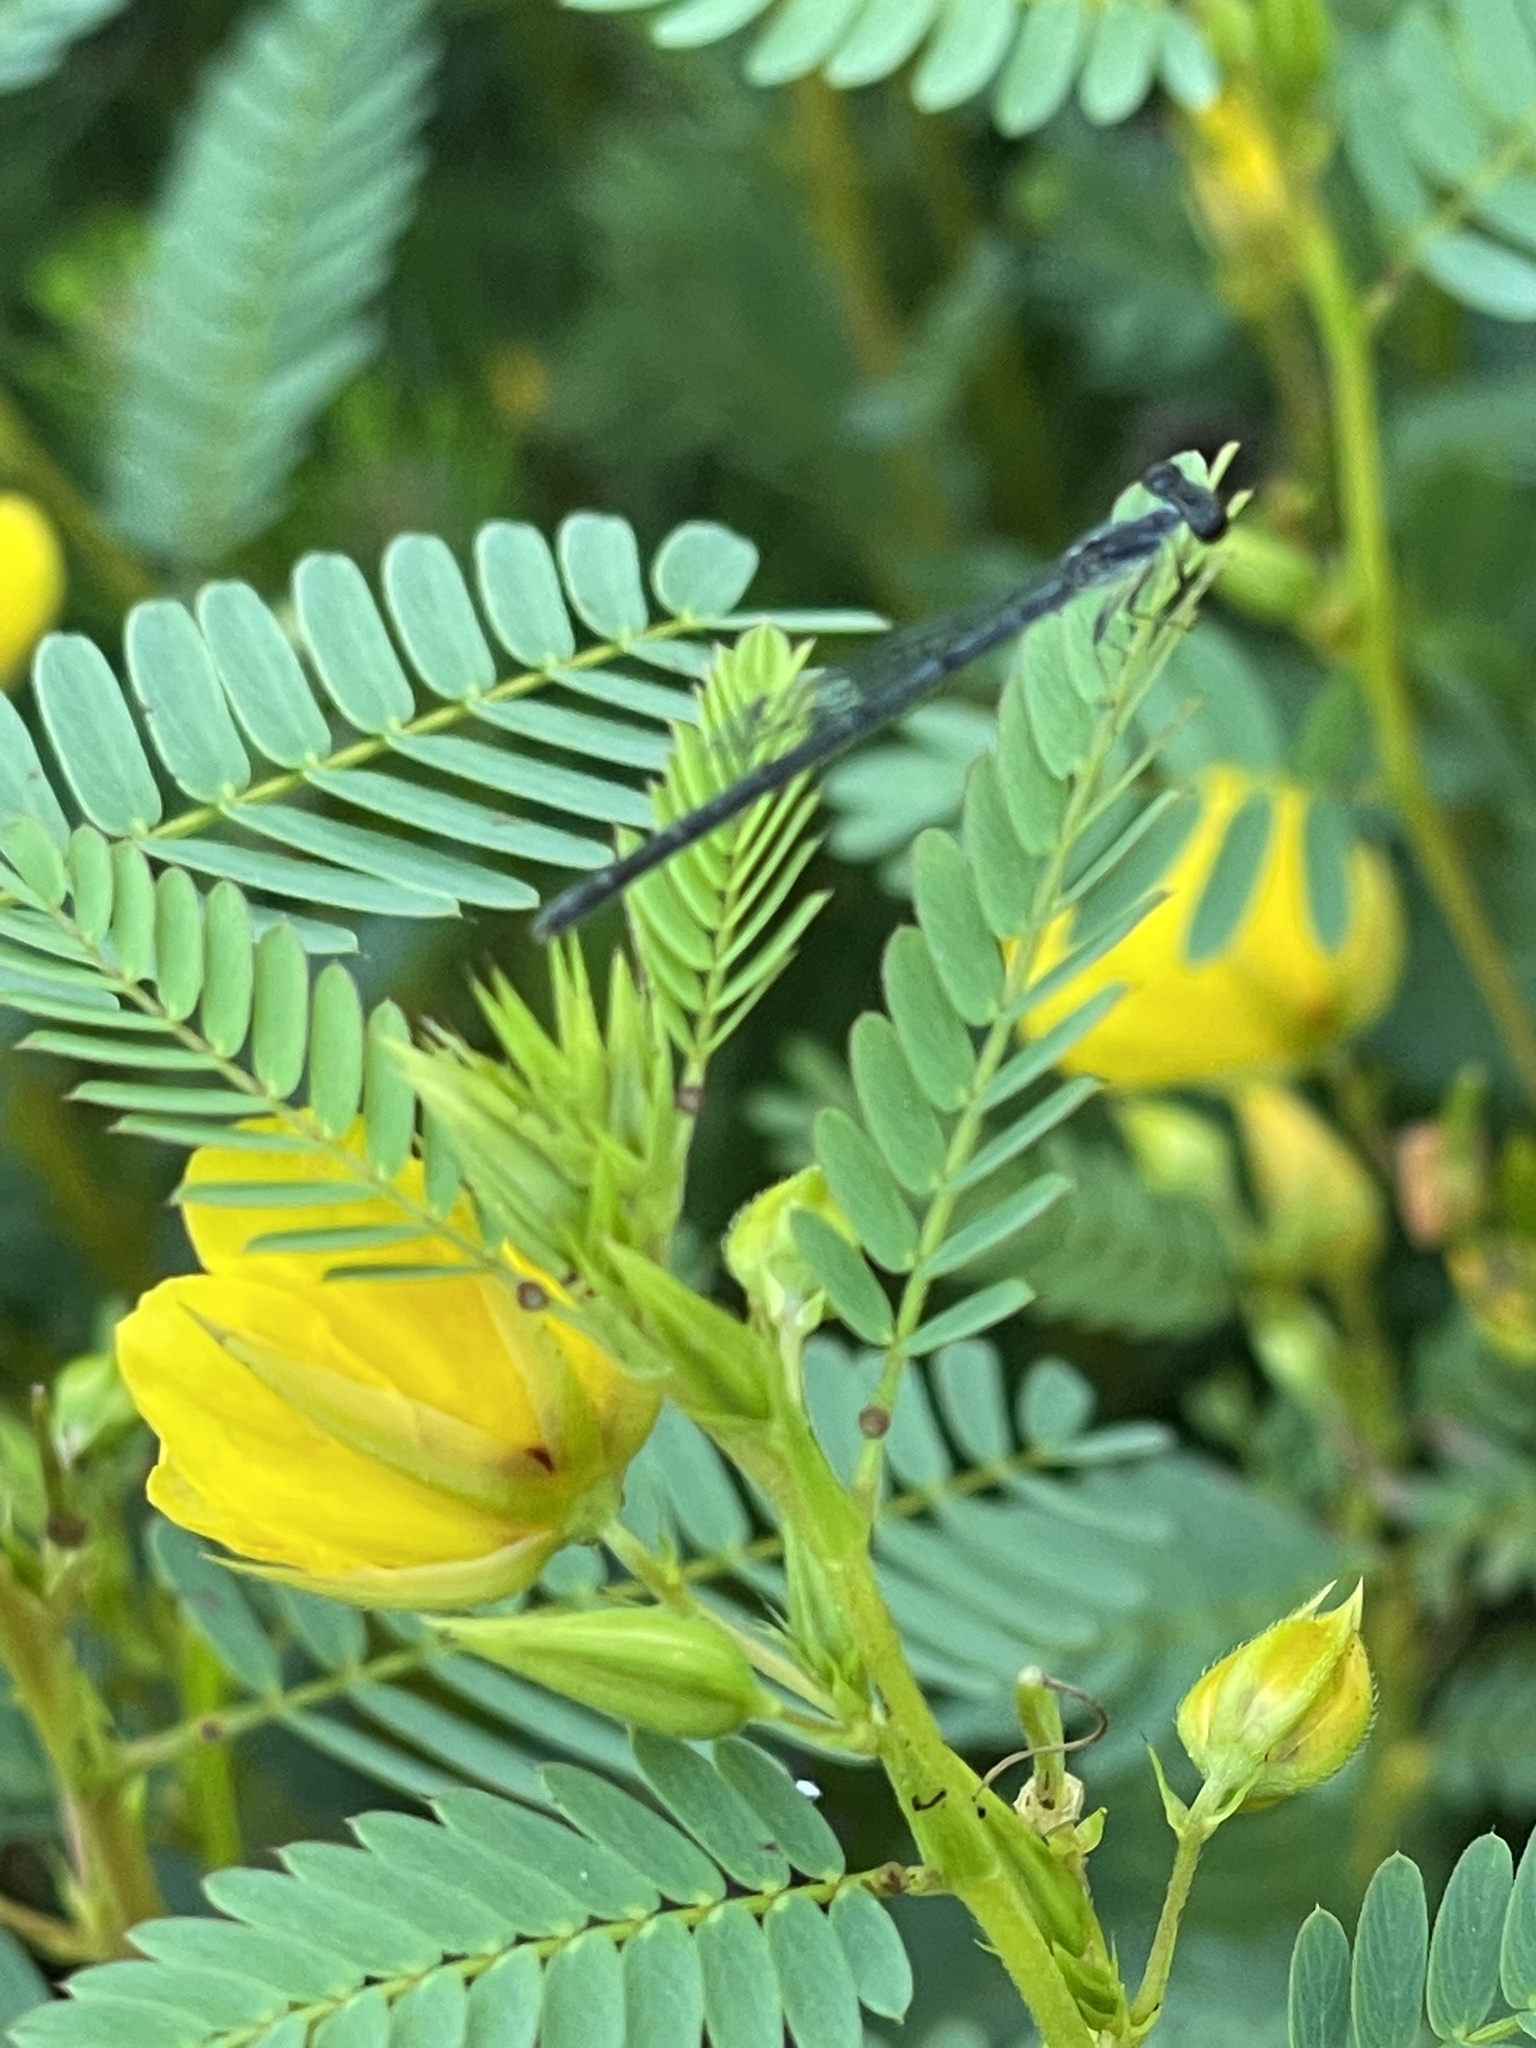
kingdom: Animalia
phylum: Arthropoda
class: Insecta
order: Odonata
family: Coenagrionidae
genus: Ischnura
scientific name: Ischnura posita
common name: Fragile forktail
